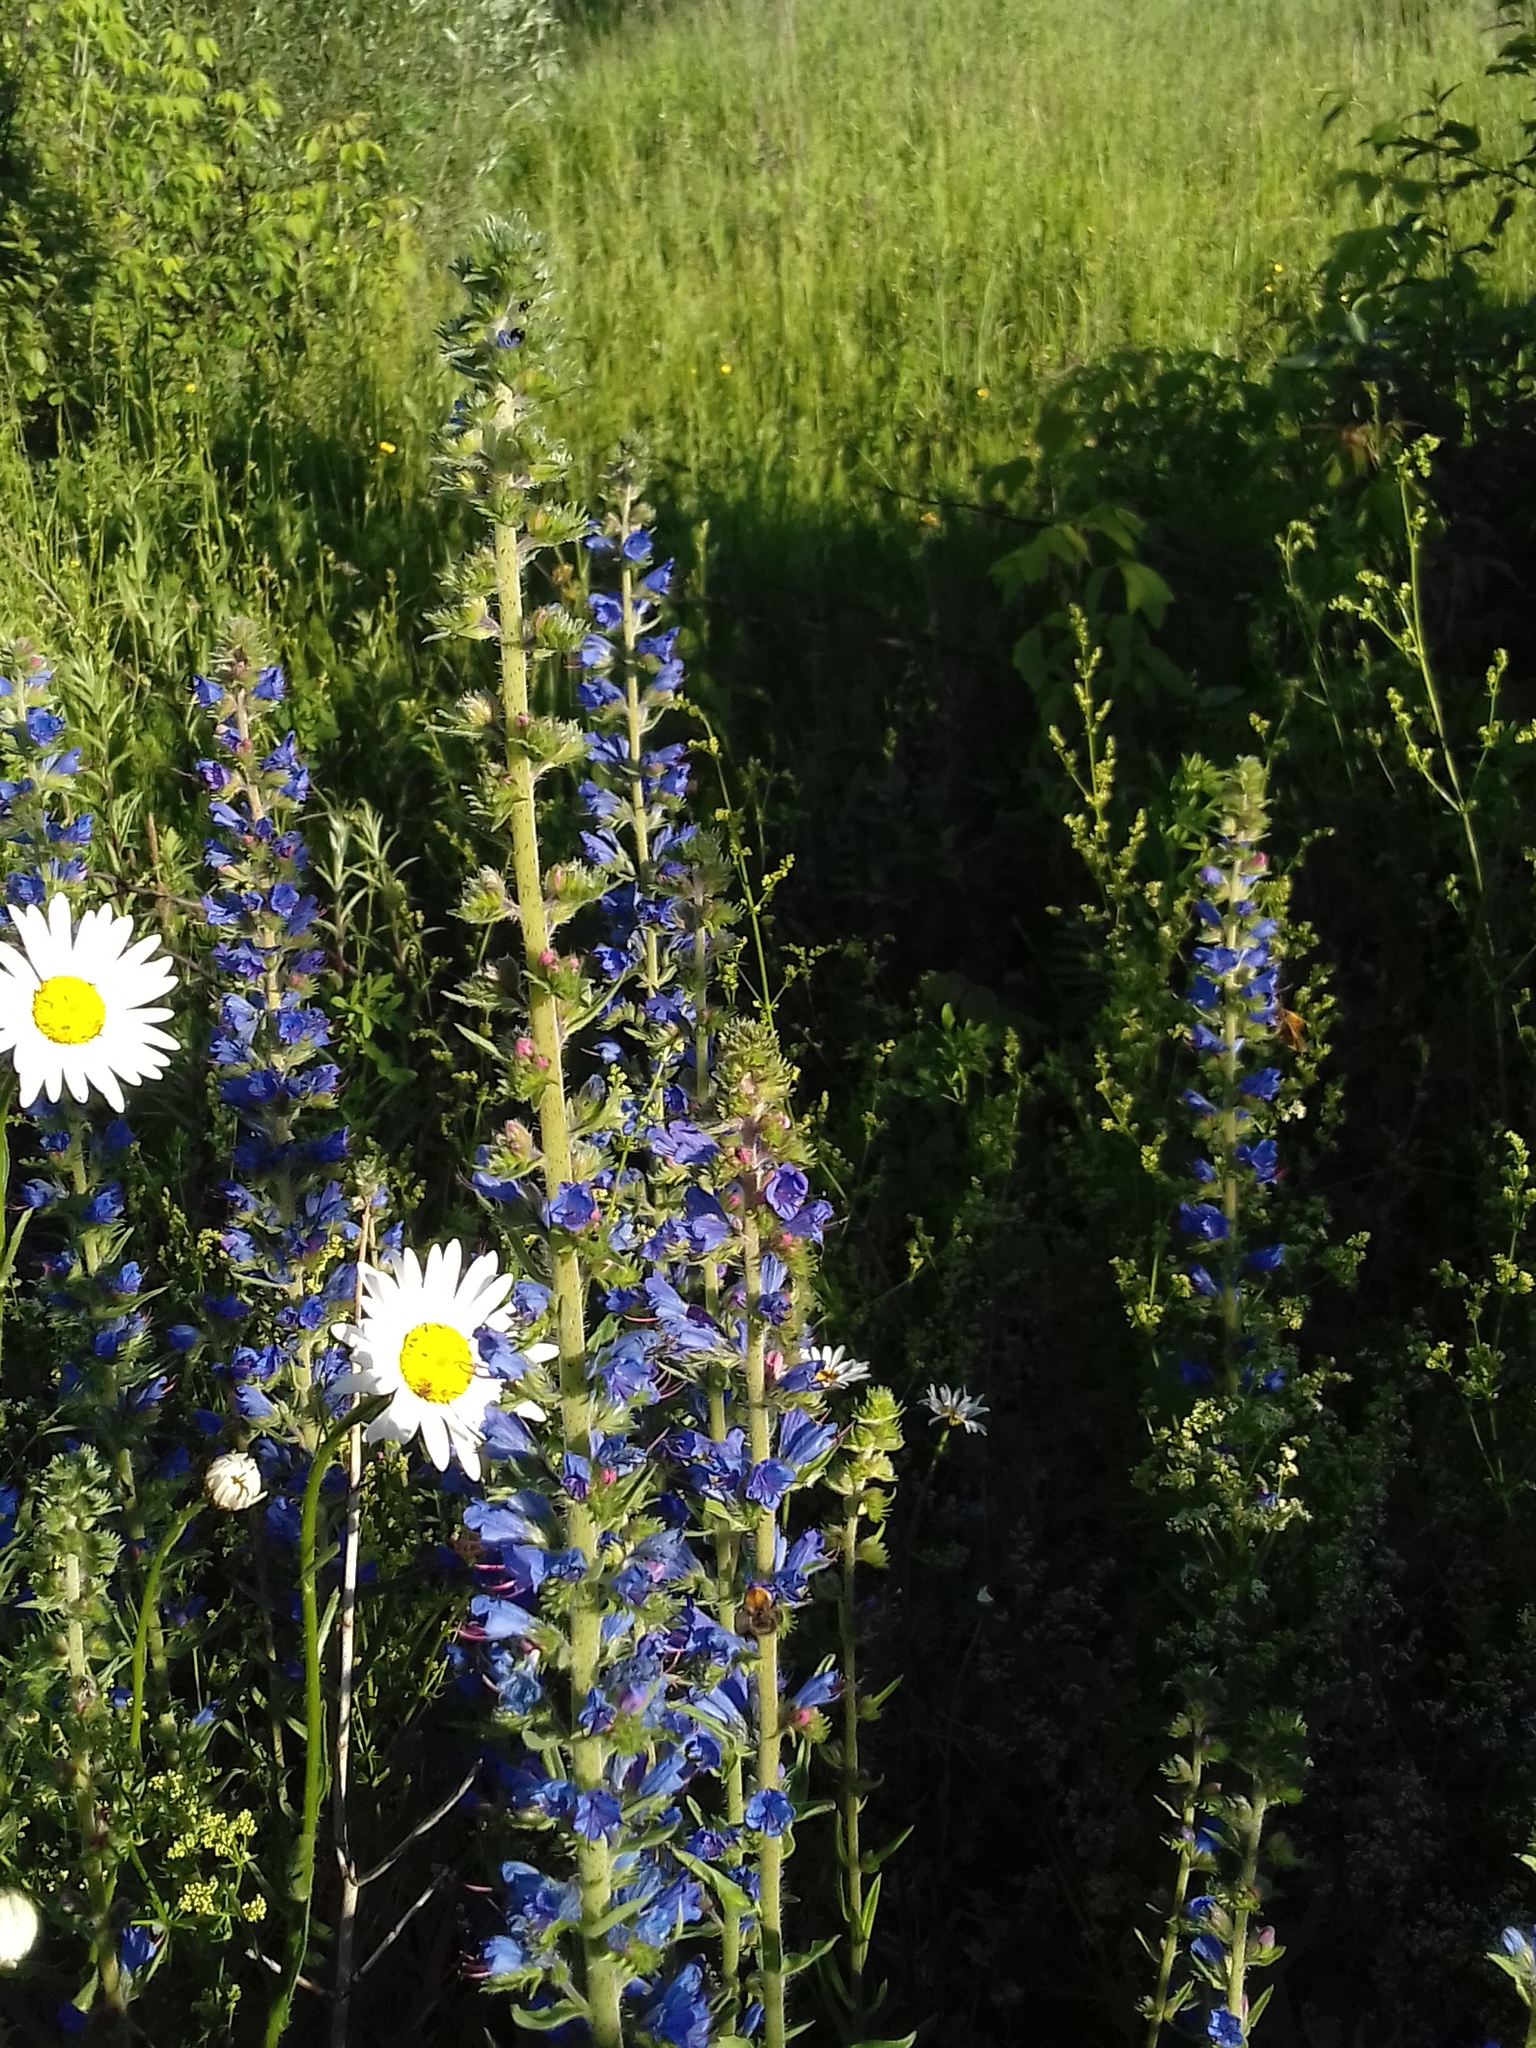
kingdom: Plantae
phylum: Tracheophyta
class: Magnoliopsida
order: Boraginales
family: Boraginaceae
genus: Echium
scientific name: Echium vulgare
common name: Common viper's bugloss
